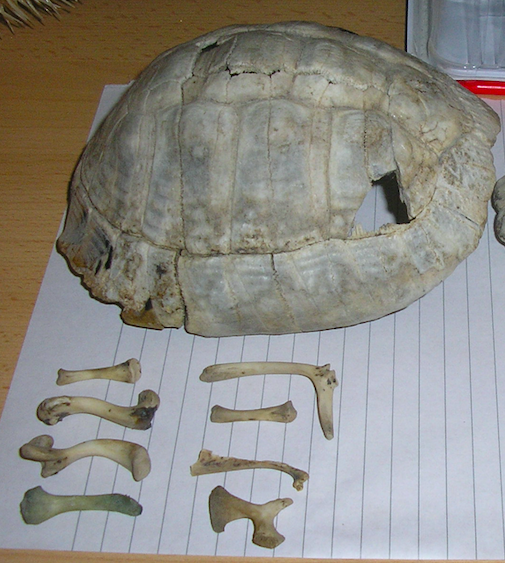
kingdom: Animalia
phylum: Chordata
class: Testudines
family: Testudinidae
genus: Testudo
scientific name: Testudo hermanni
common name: Hermann's tortoise
